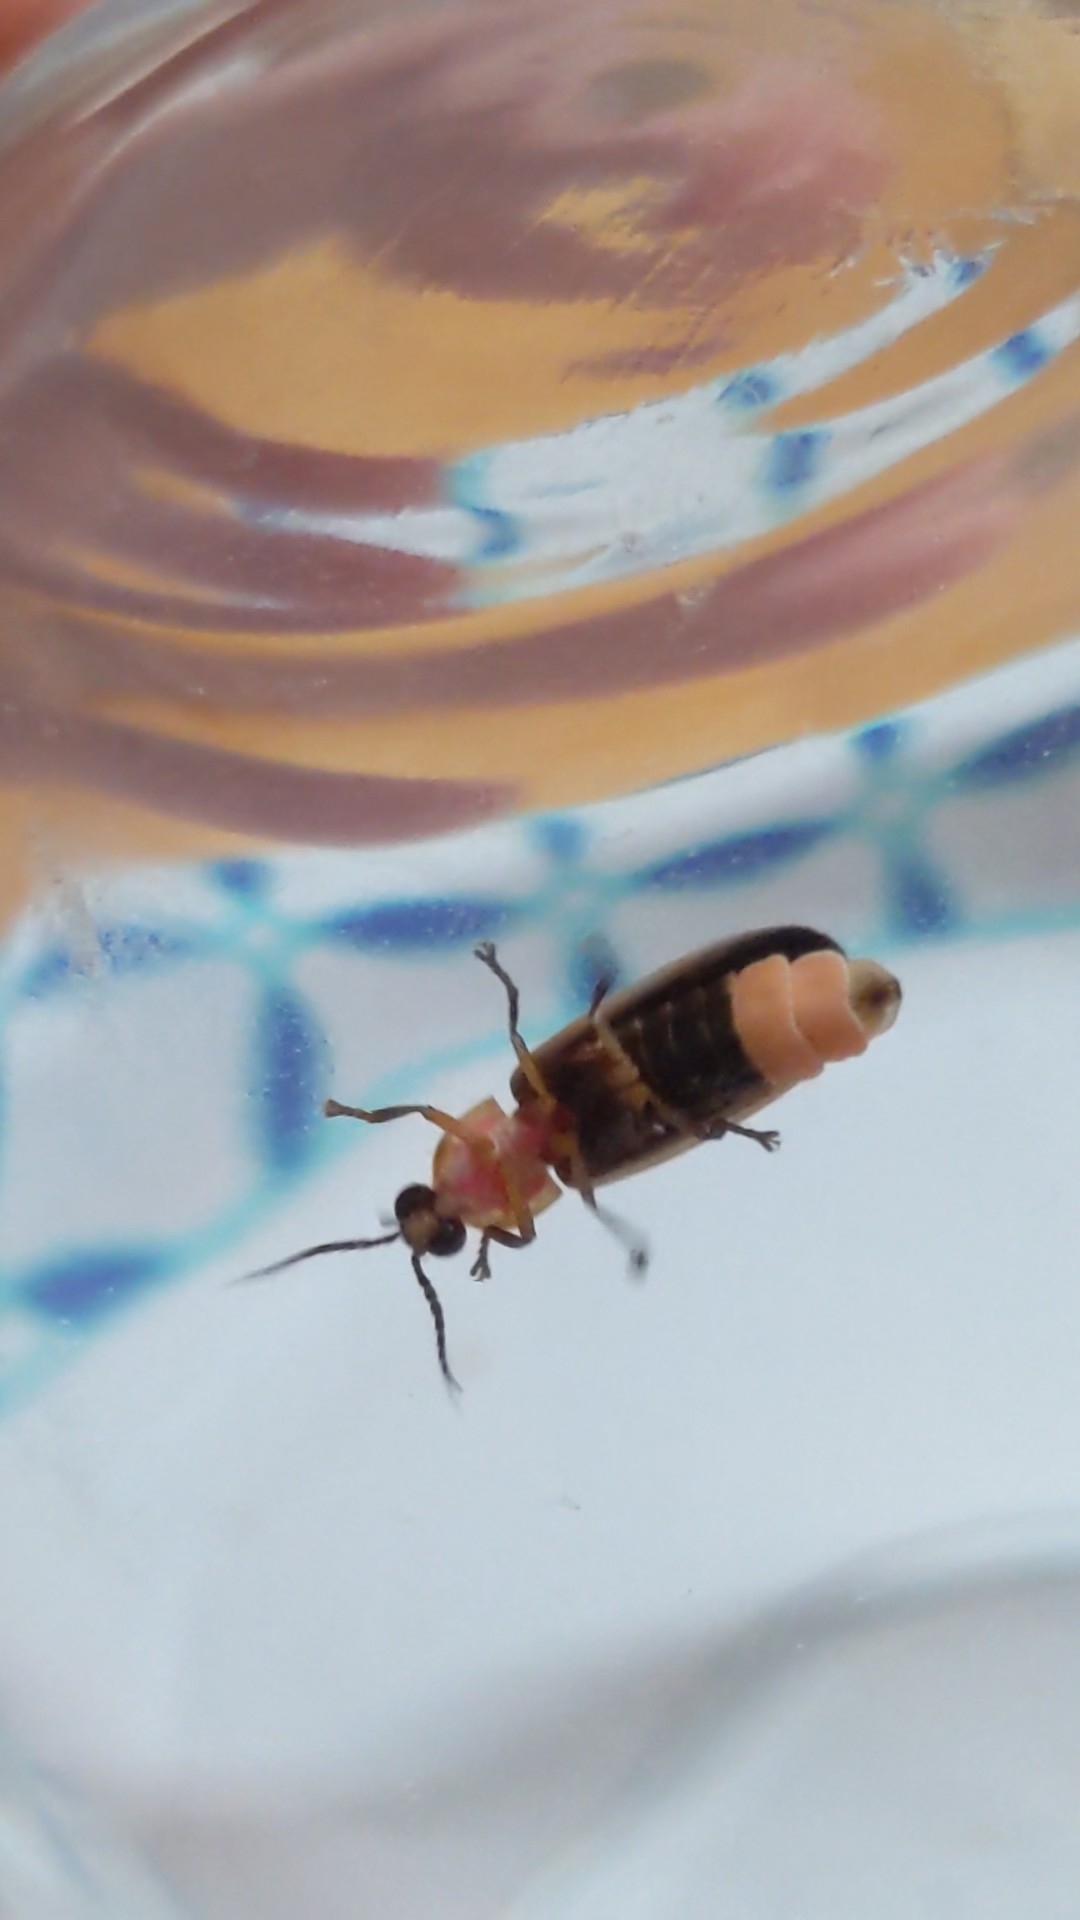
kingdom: Animalia
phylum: Arthropoda
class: Insecta
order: Coleoptera
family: Lampyridae
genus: Photinus
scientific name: Photinus pyralis
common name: Big dipper firefly
